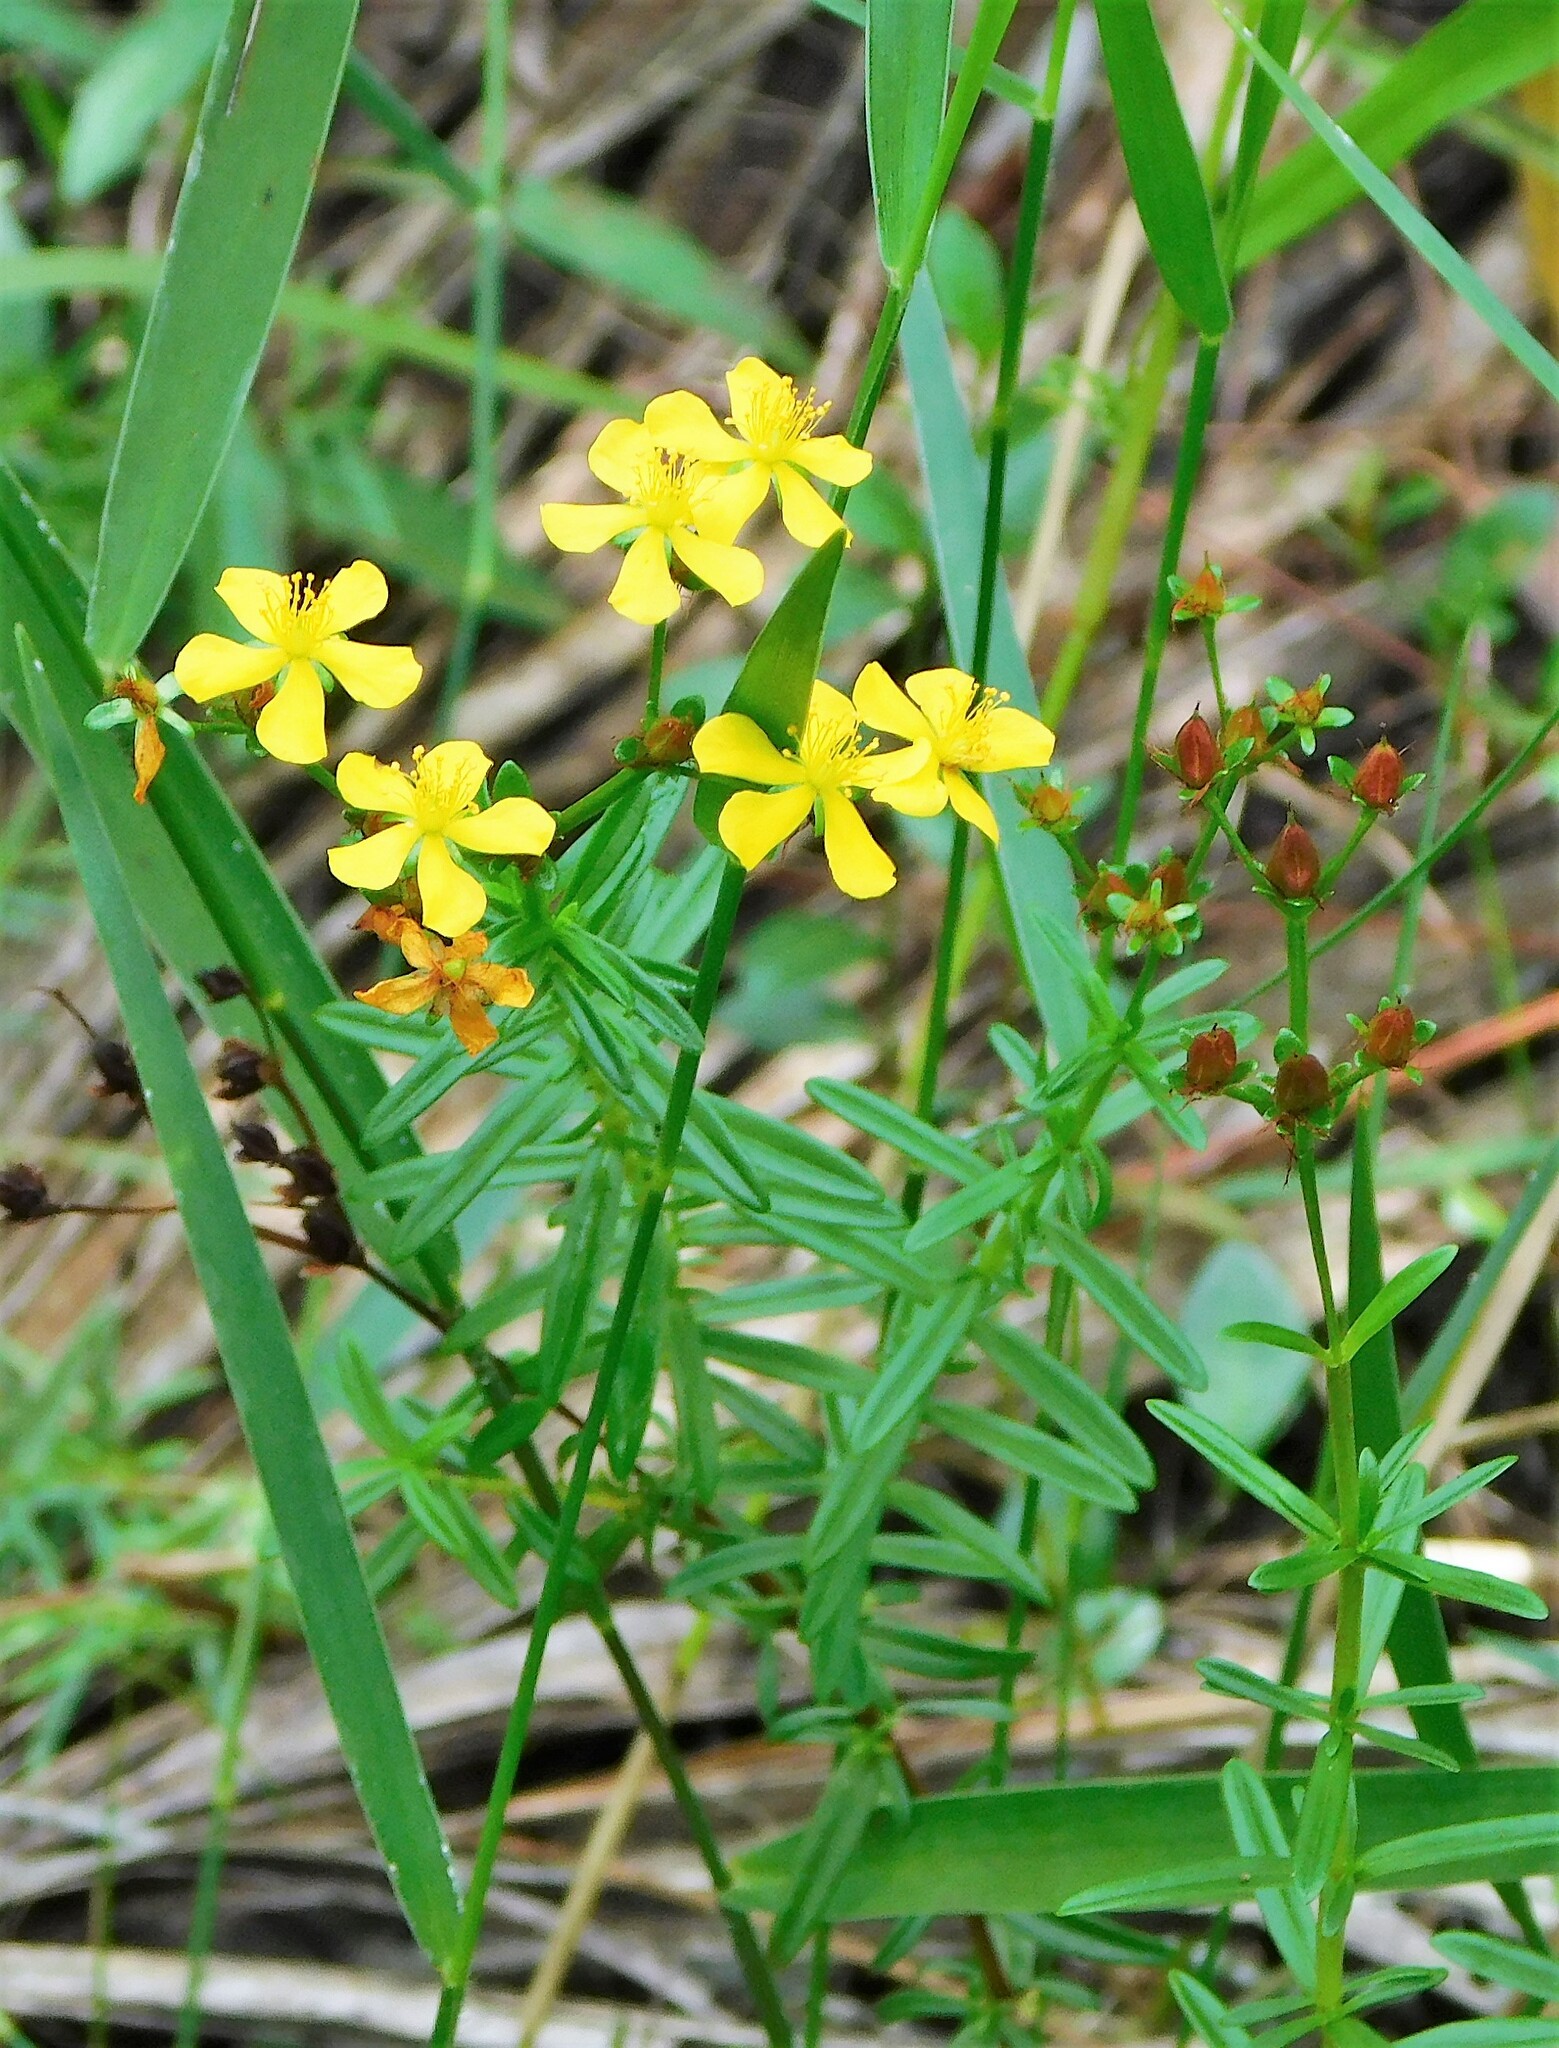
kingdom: Plantae
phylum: Tracheophyta
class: Magnoliopsida
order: Malpighiales
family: Hypericaceae
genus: Hypericum
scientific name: Hypericum cistifolium
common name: Round-pod st. john's-wort
